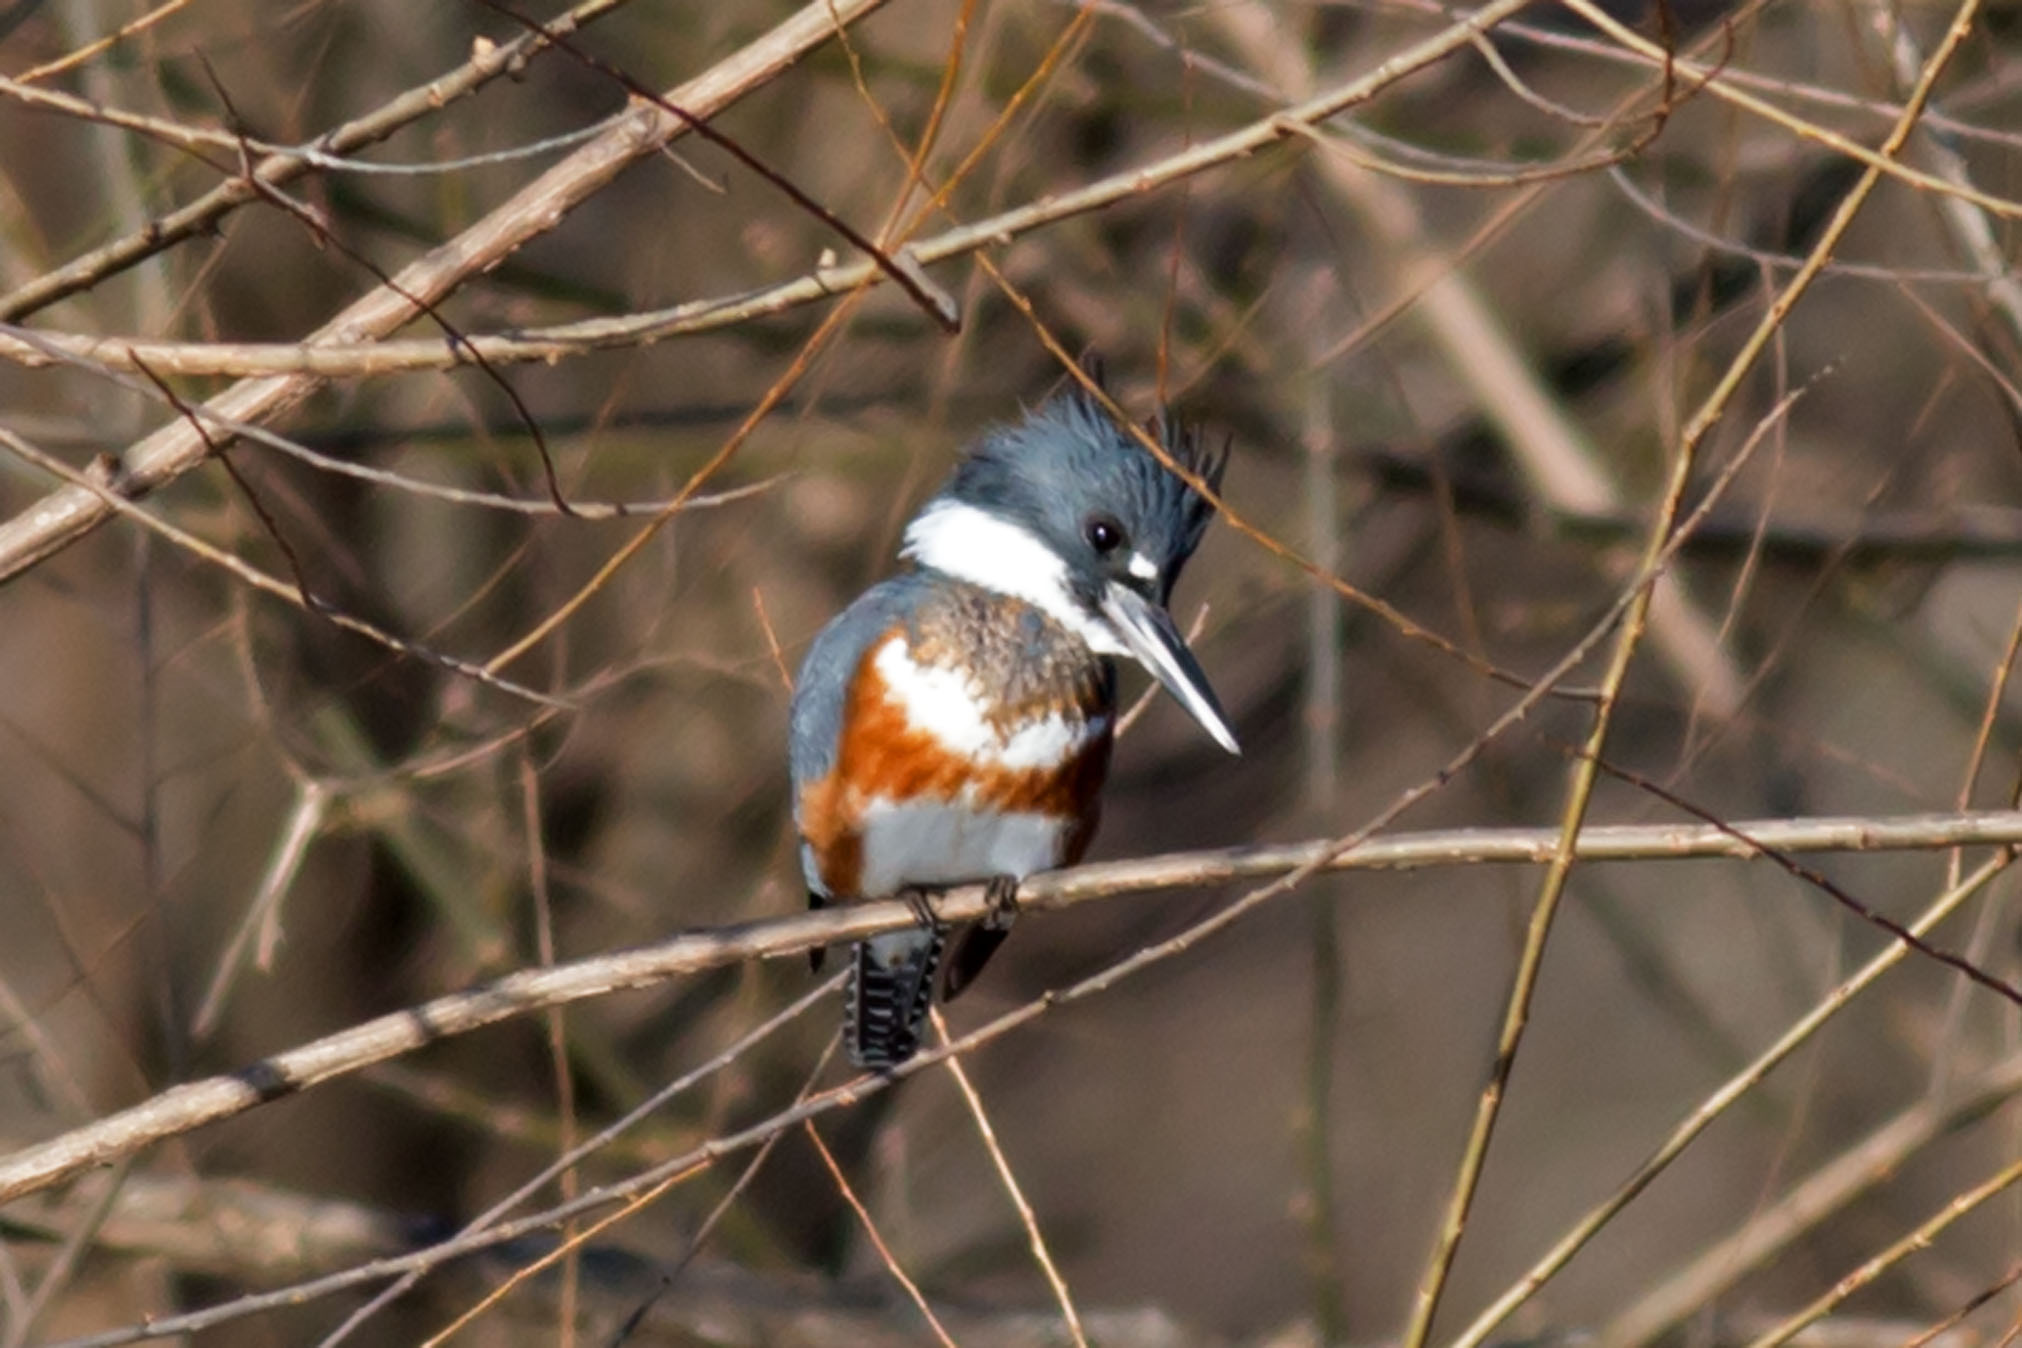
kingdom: Animalia
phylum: Chordata
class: Aves
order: Coraciiformes
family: Alcedinidae
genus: Megaceryle
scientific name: Megaceryle alcyon
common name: Belted kingfisher
